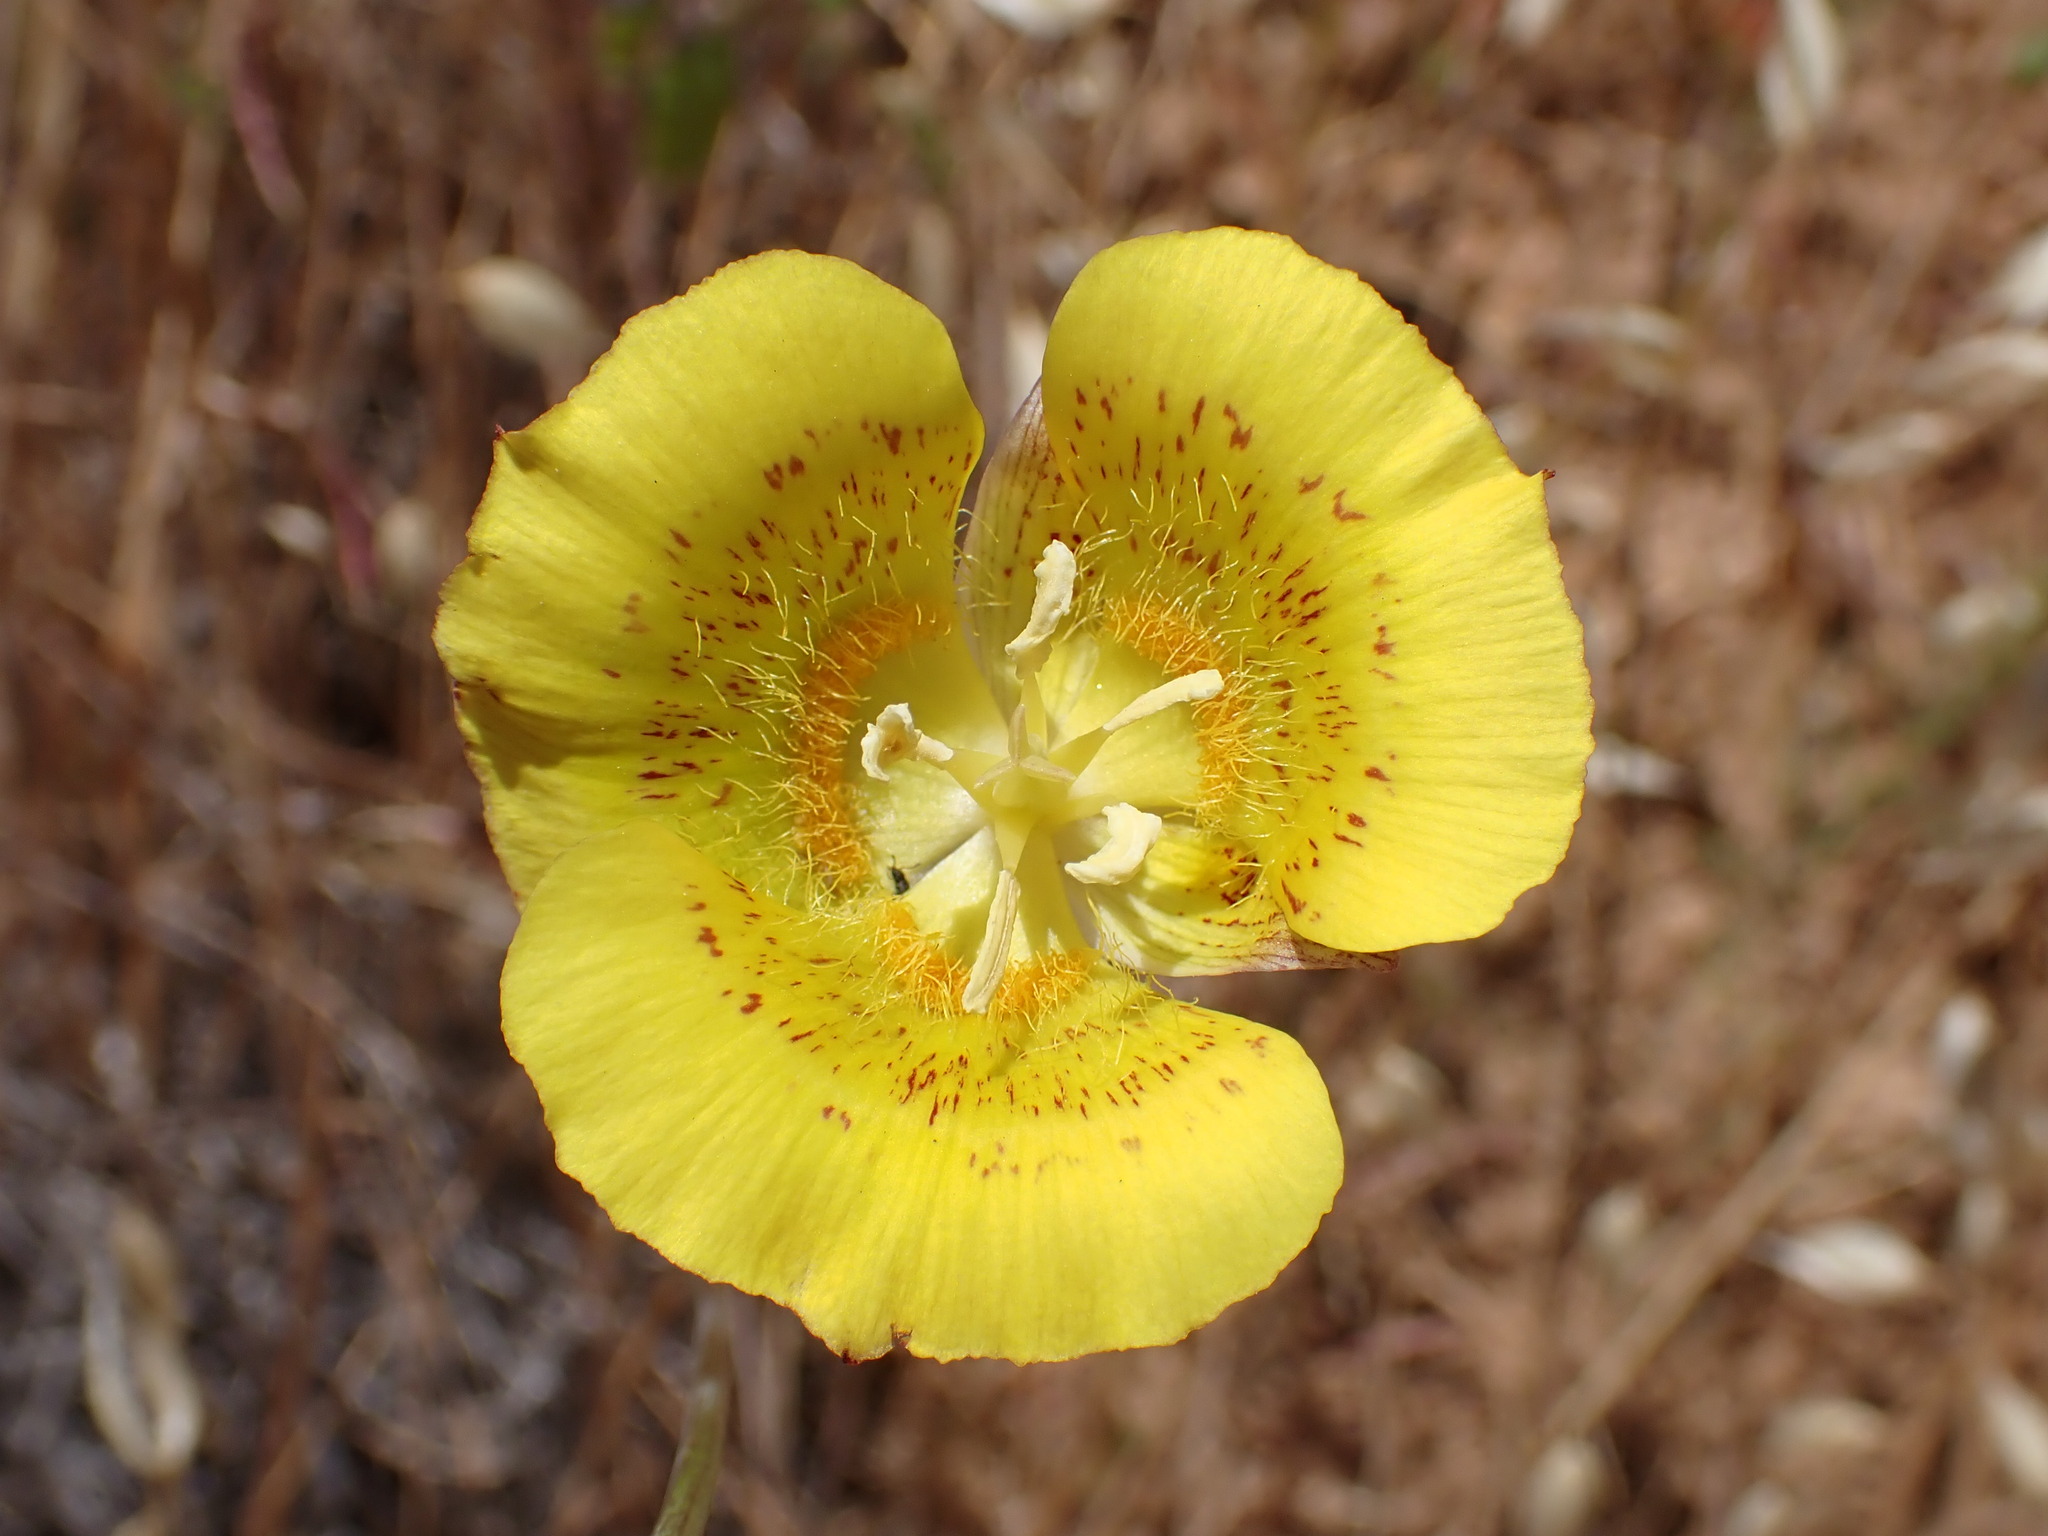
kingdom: Plantae
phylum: Tracheophyta
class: Liliopsida
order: Liliales
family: Liliaceae
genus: Calochortus
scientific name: Calochortus luteus
